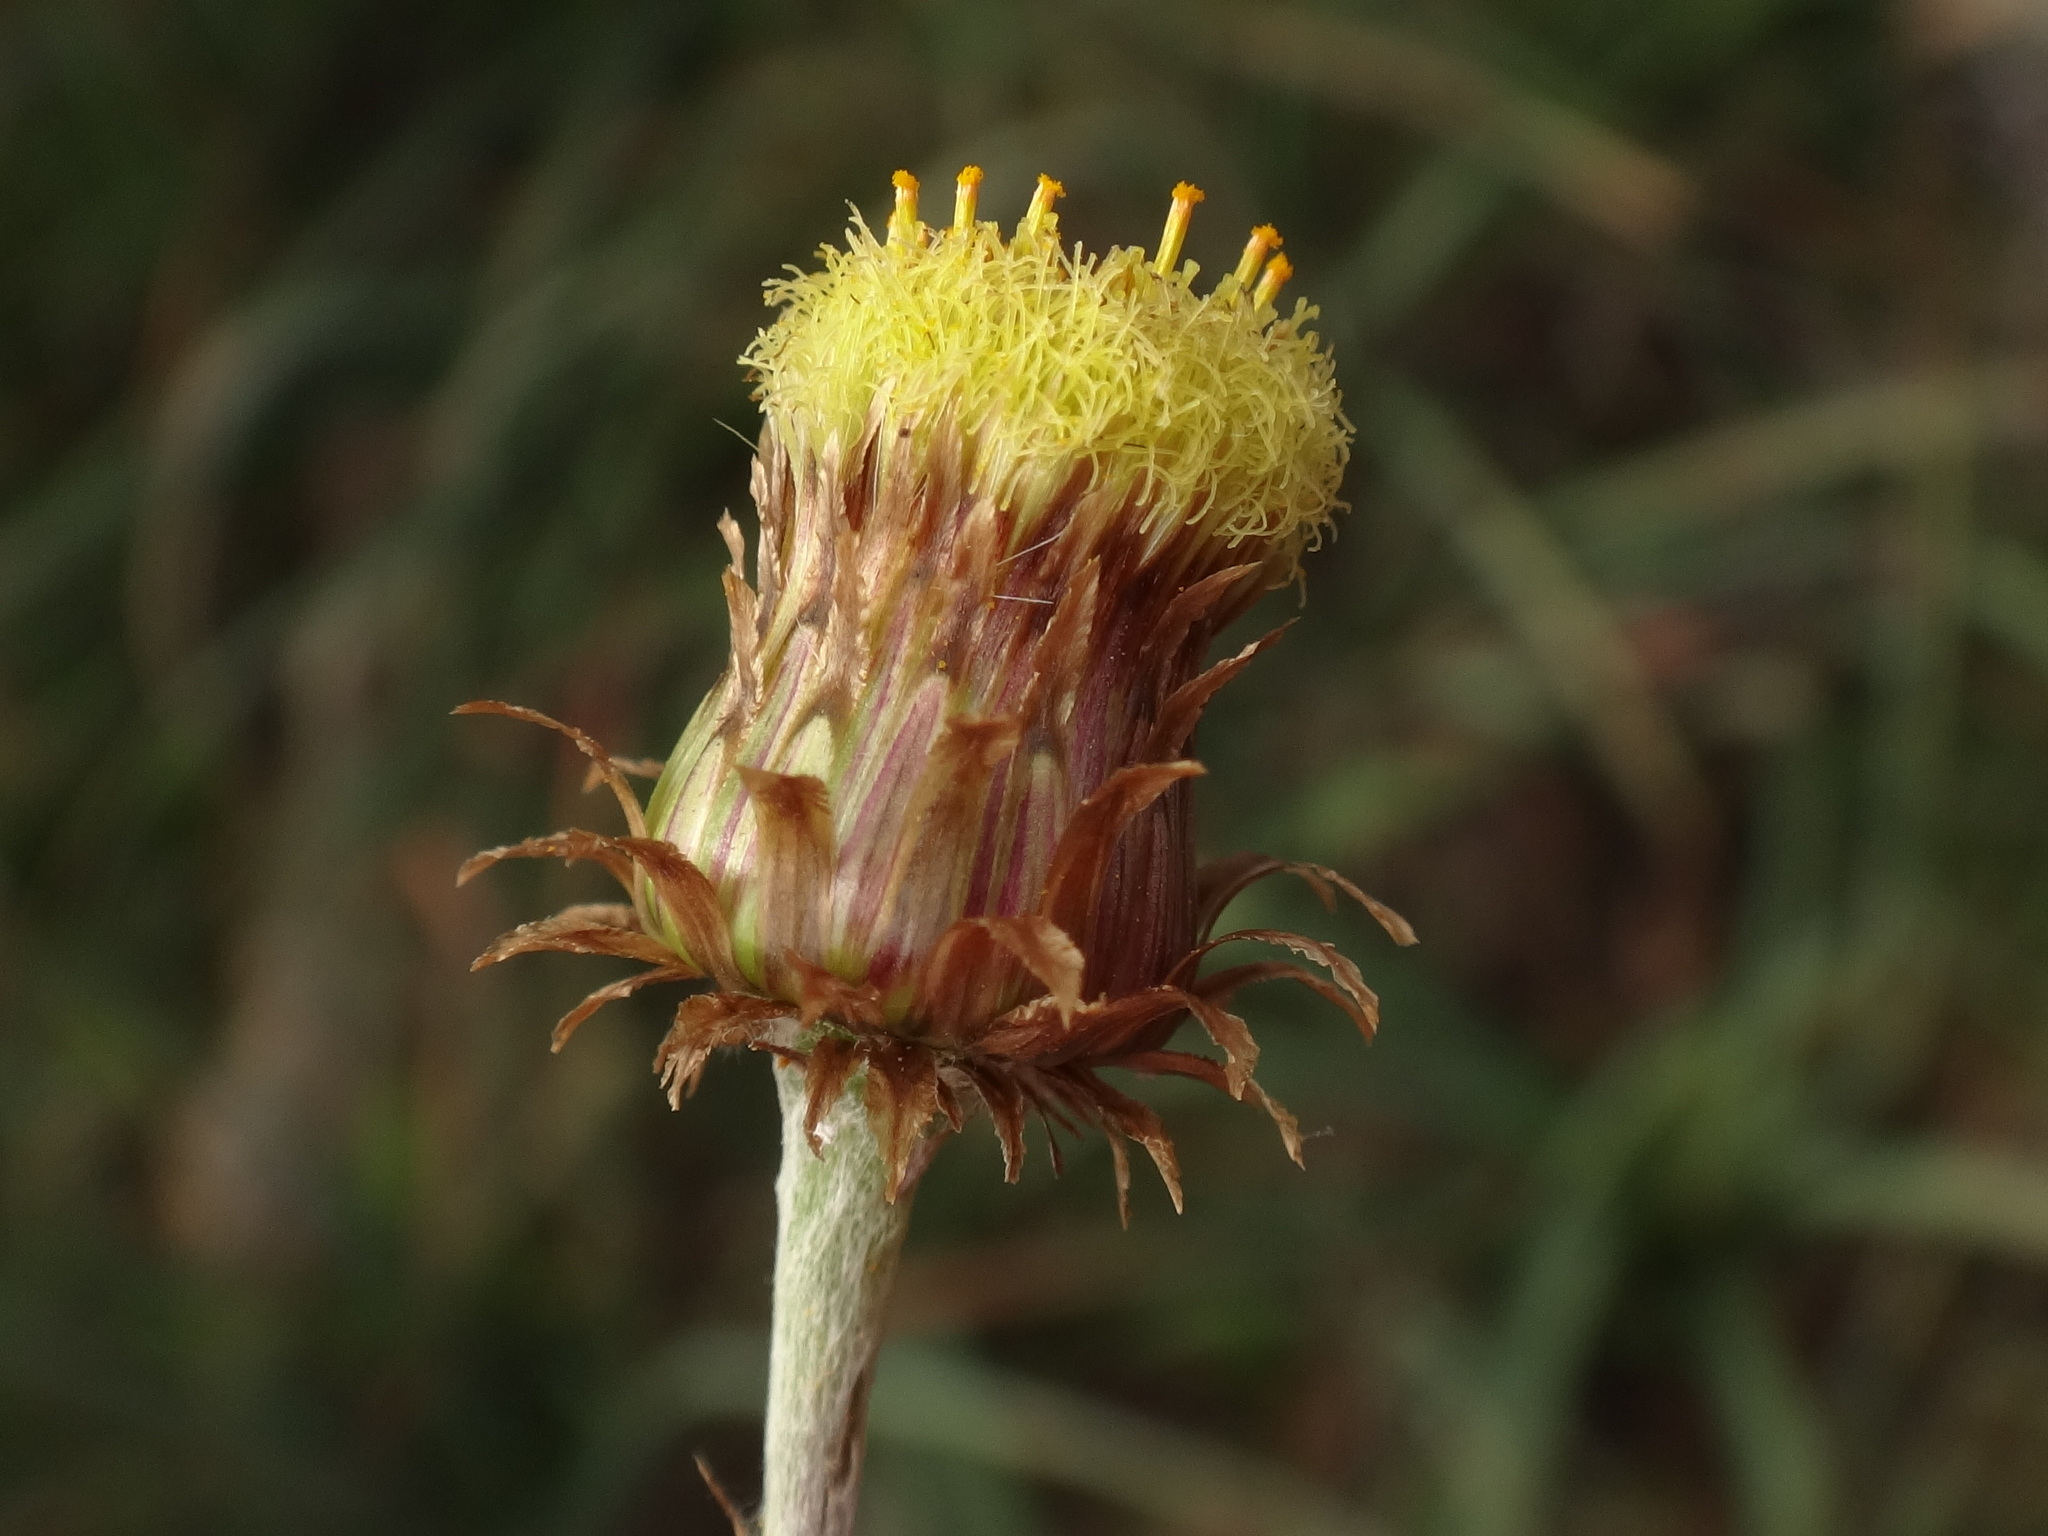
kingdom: Plantae
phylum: Tracheophyta
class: Magnoliopsida
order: Asterales
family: Asteraceae
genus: Phagnalon
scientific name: Phagnalon saxatile
